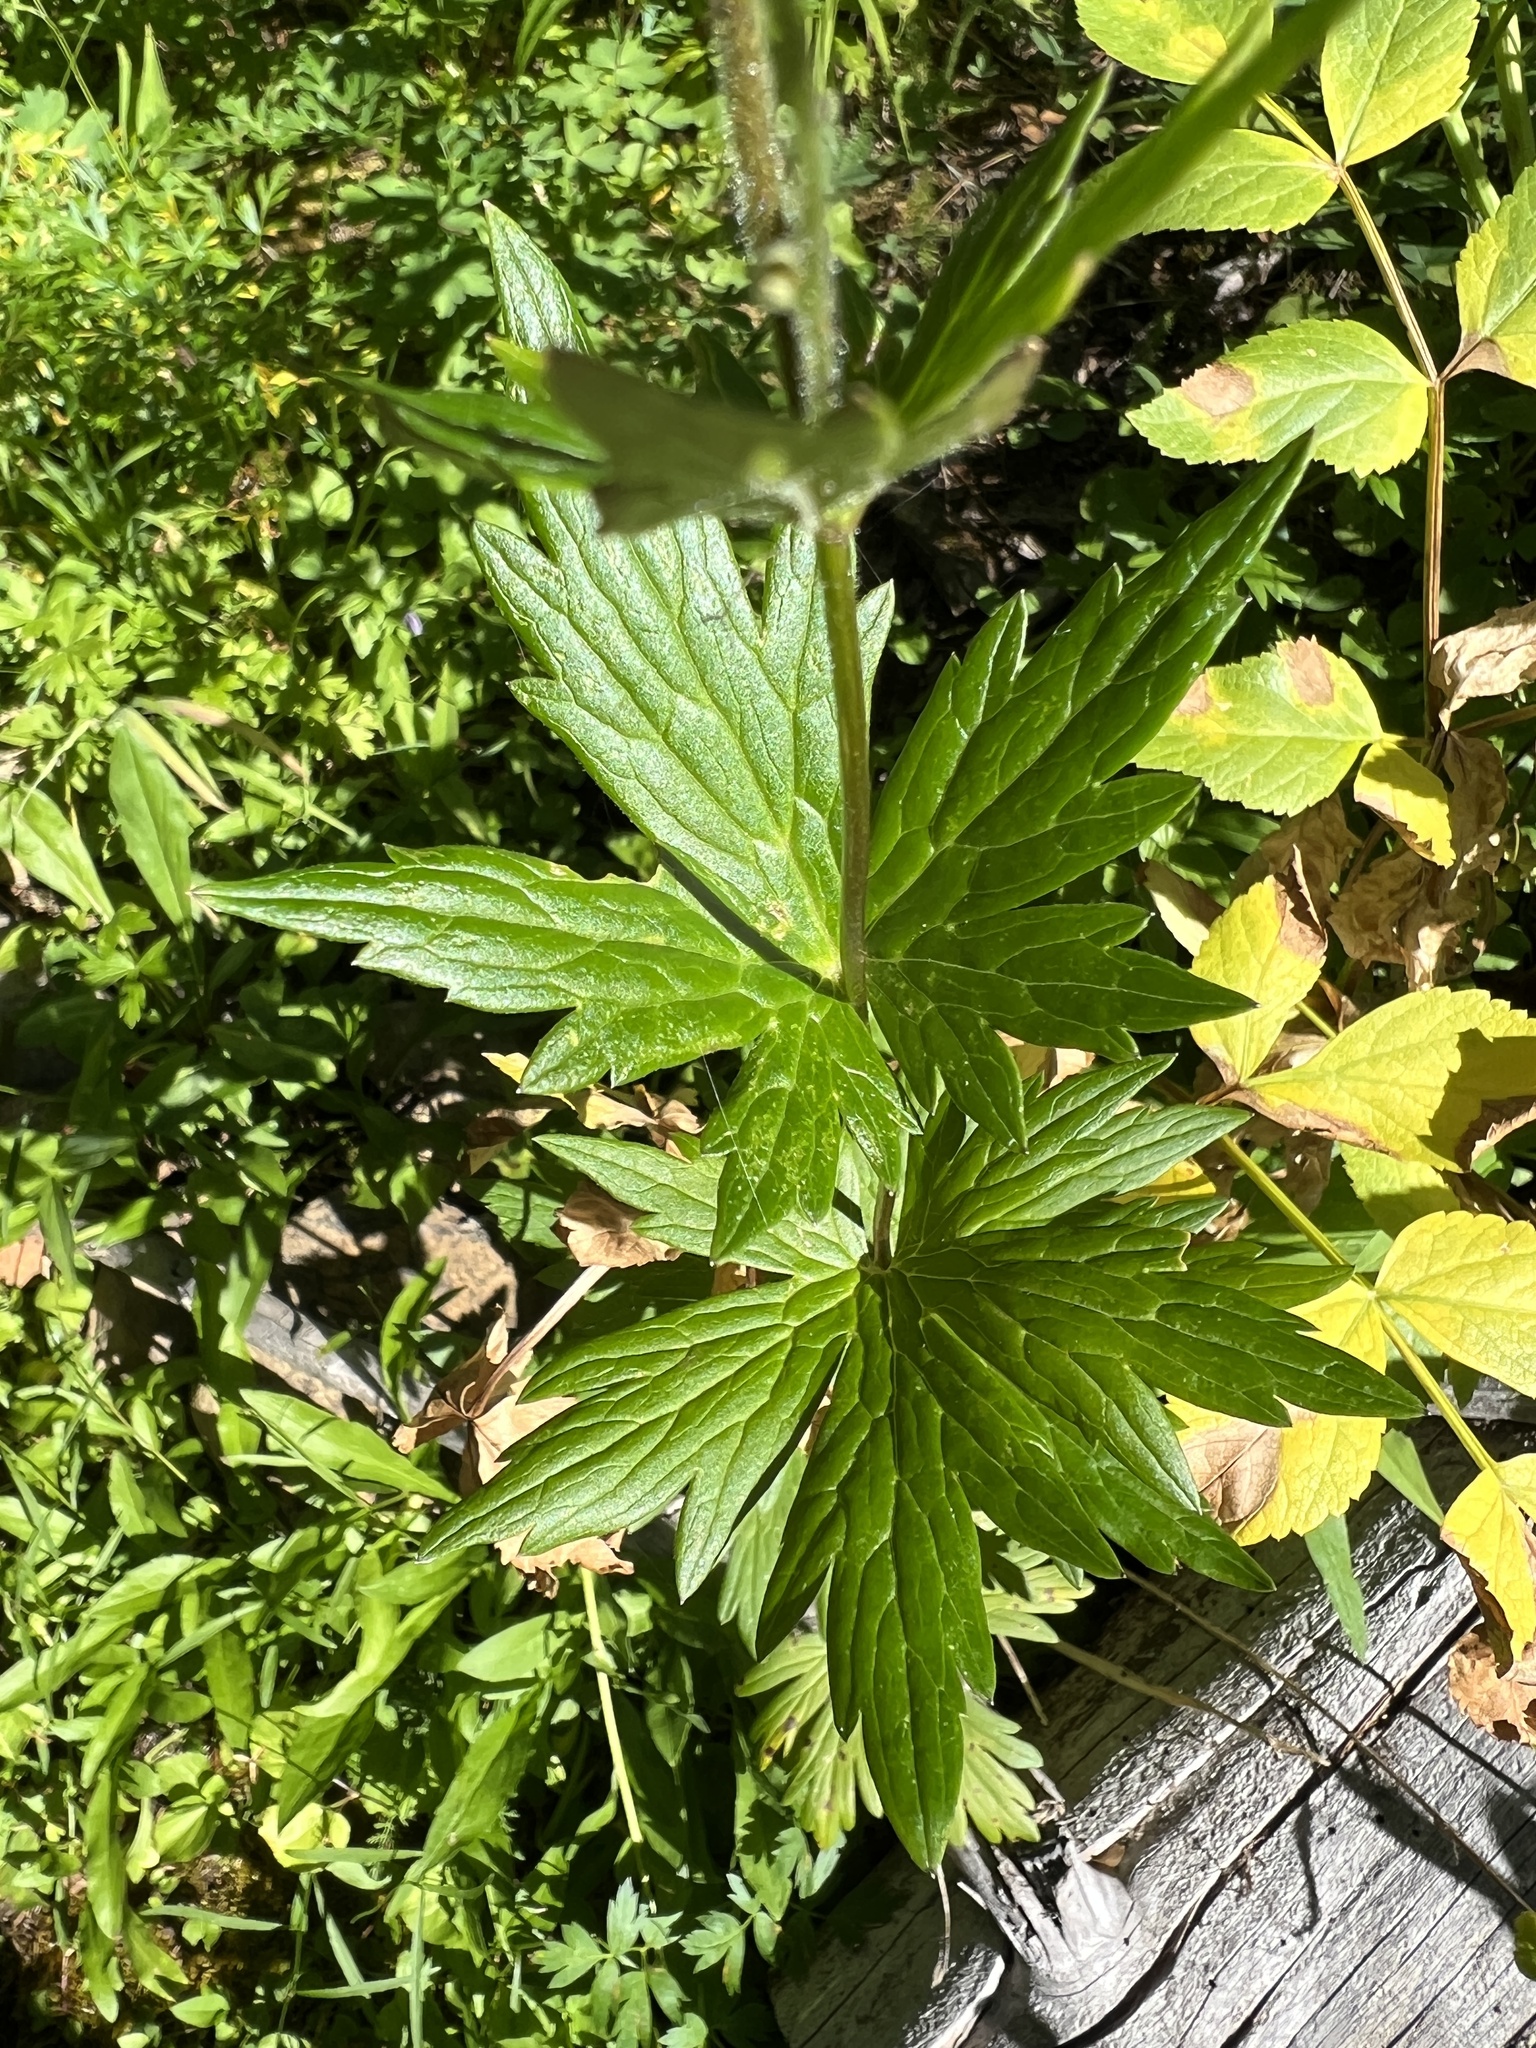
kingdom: Plantae
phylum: Tracheophyta
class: Magnoliopsida
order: Ranunculales
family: Ranunculaceae
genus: Aconitum
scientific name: Aconitum columbianum
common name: Columbia aconite
